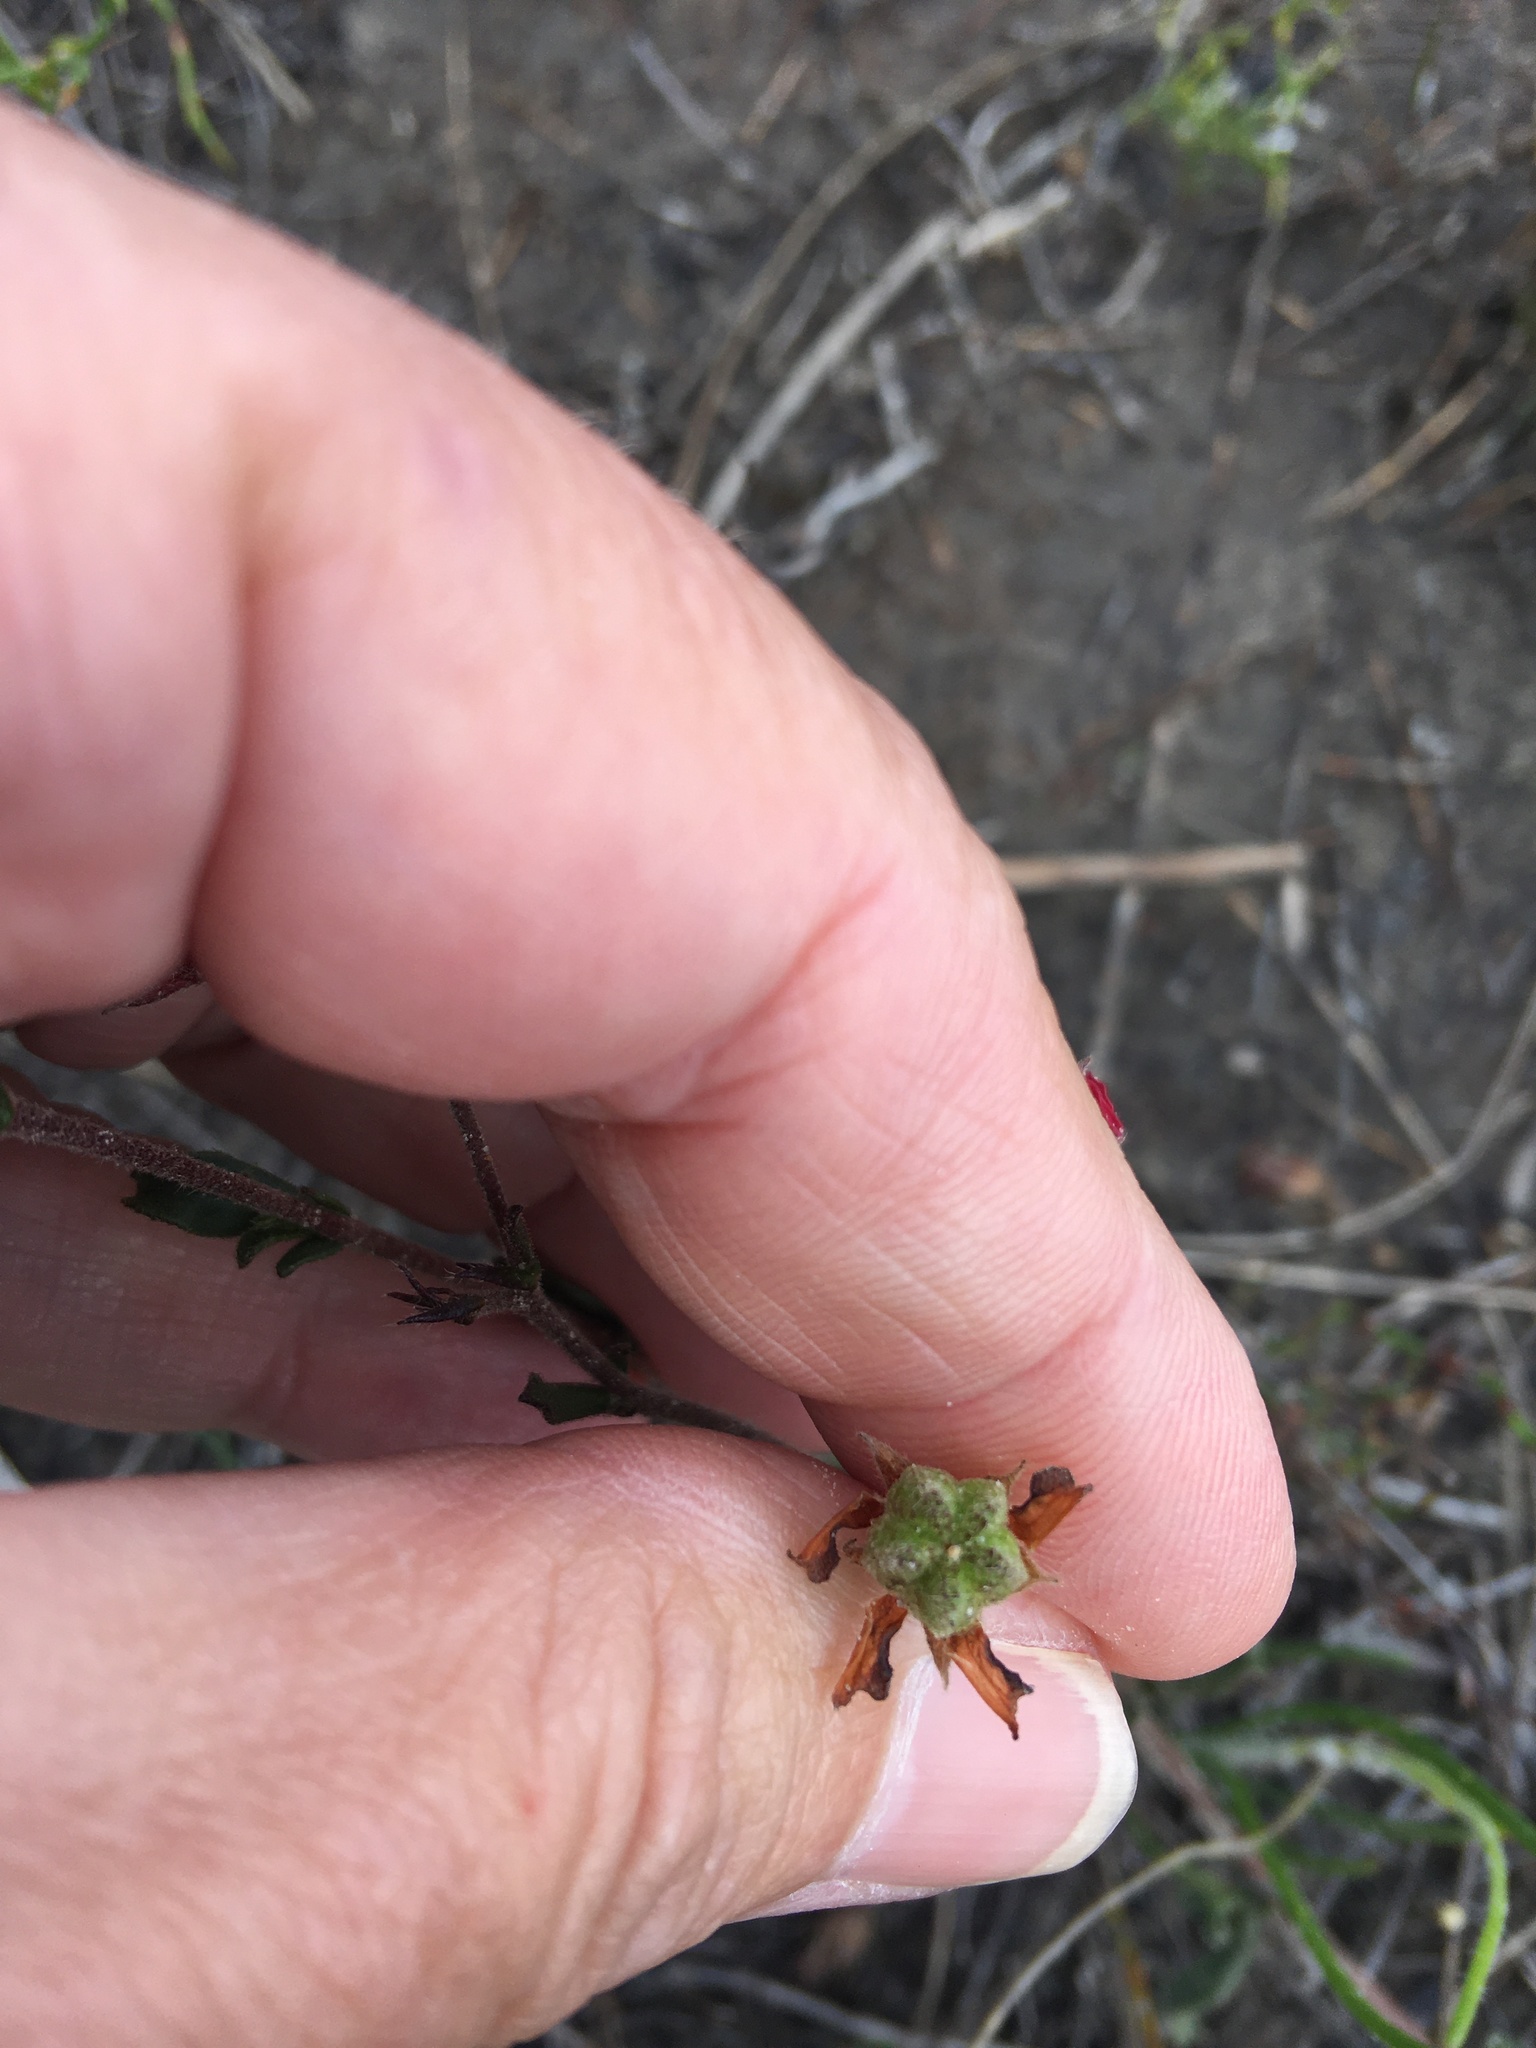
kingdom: Plantae
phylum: Tracheophyta
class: Magnoliopsida
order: Malvales
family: Malvaceae
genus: Hermannia
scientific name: Hermannia flammea
